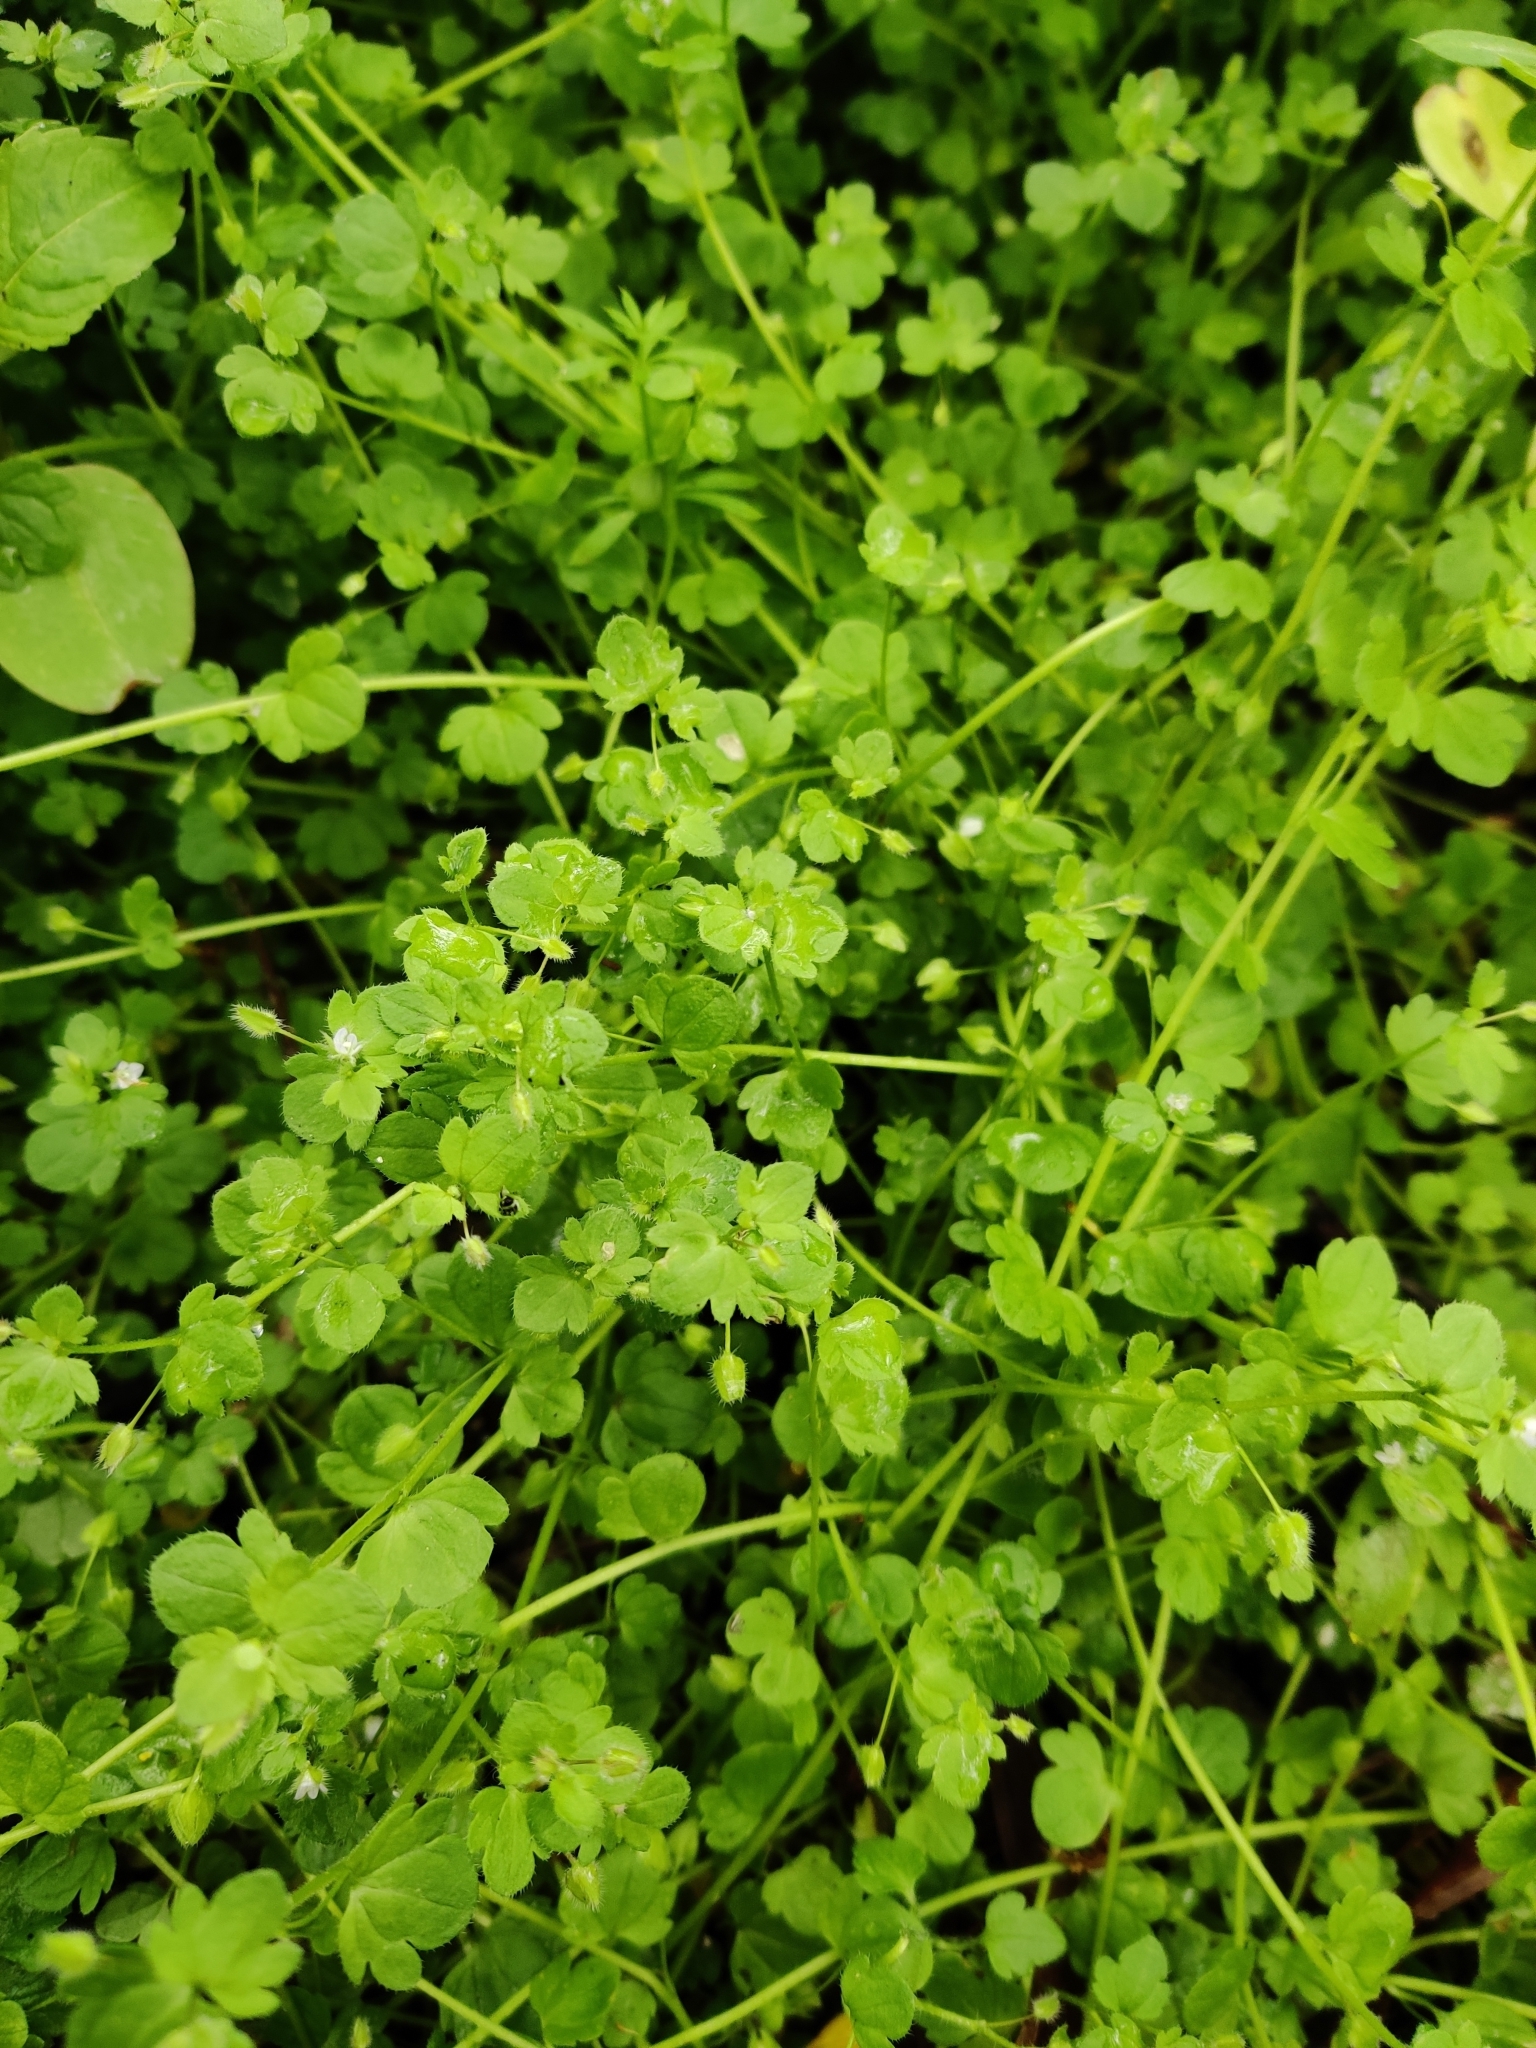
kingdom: Plantae
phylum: Tracheophyta
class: Magnoliopsida
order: Lamiales
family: Plantaginaceae
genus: Veronica
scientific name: Veronica sublobata
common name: False ivy-leaved speedwell
